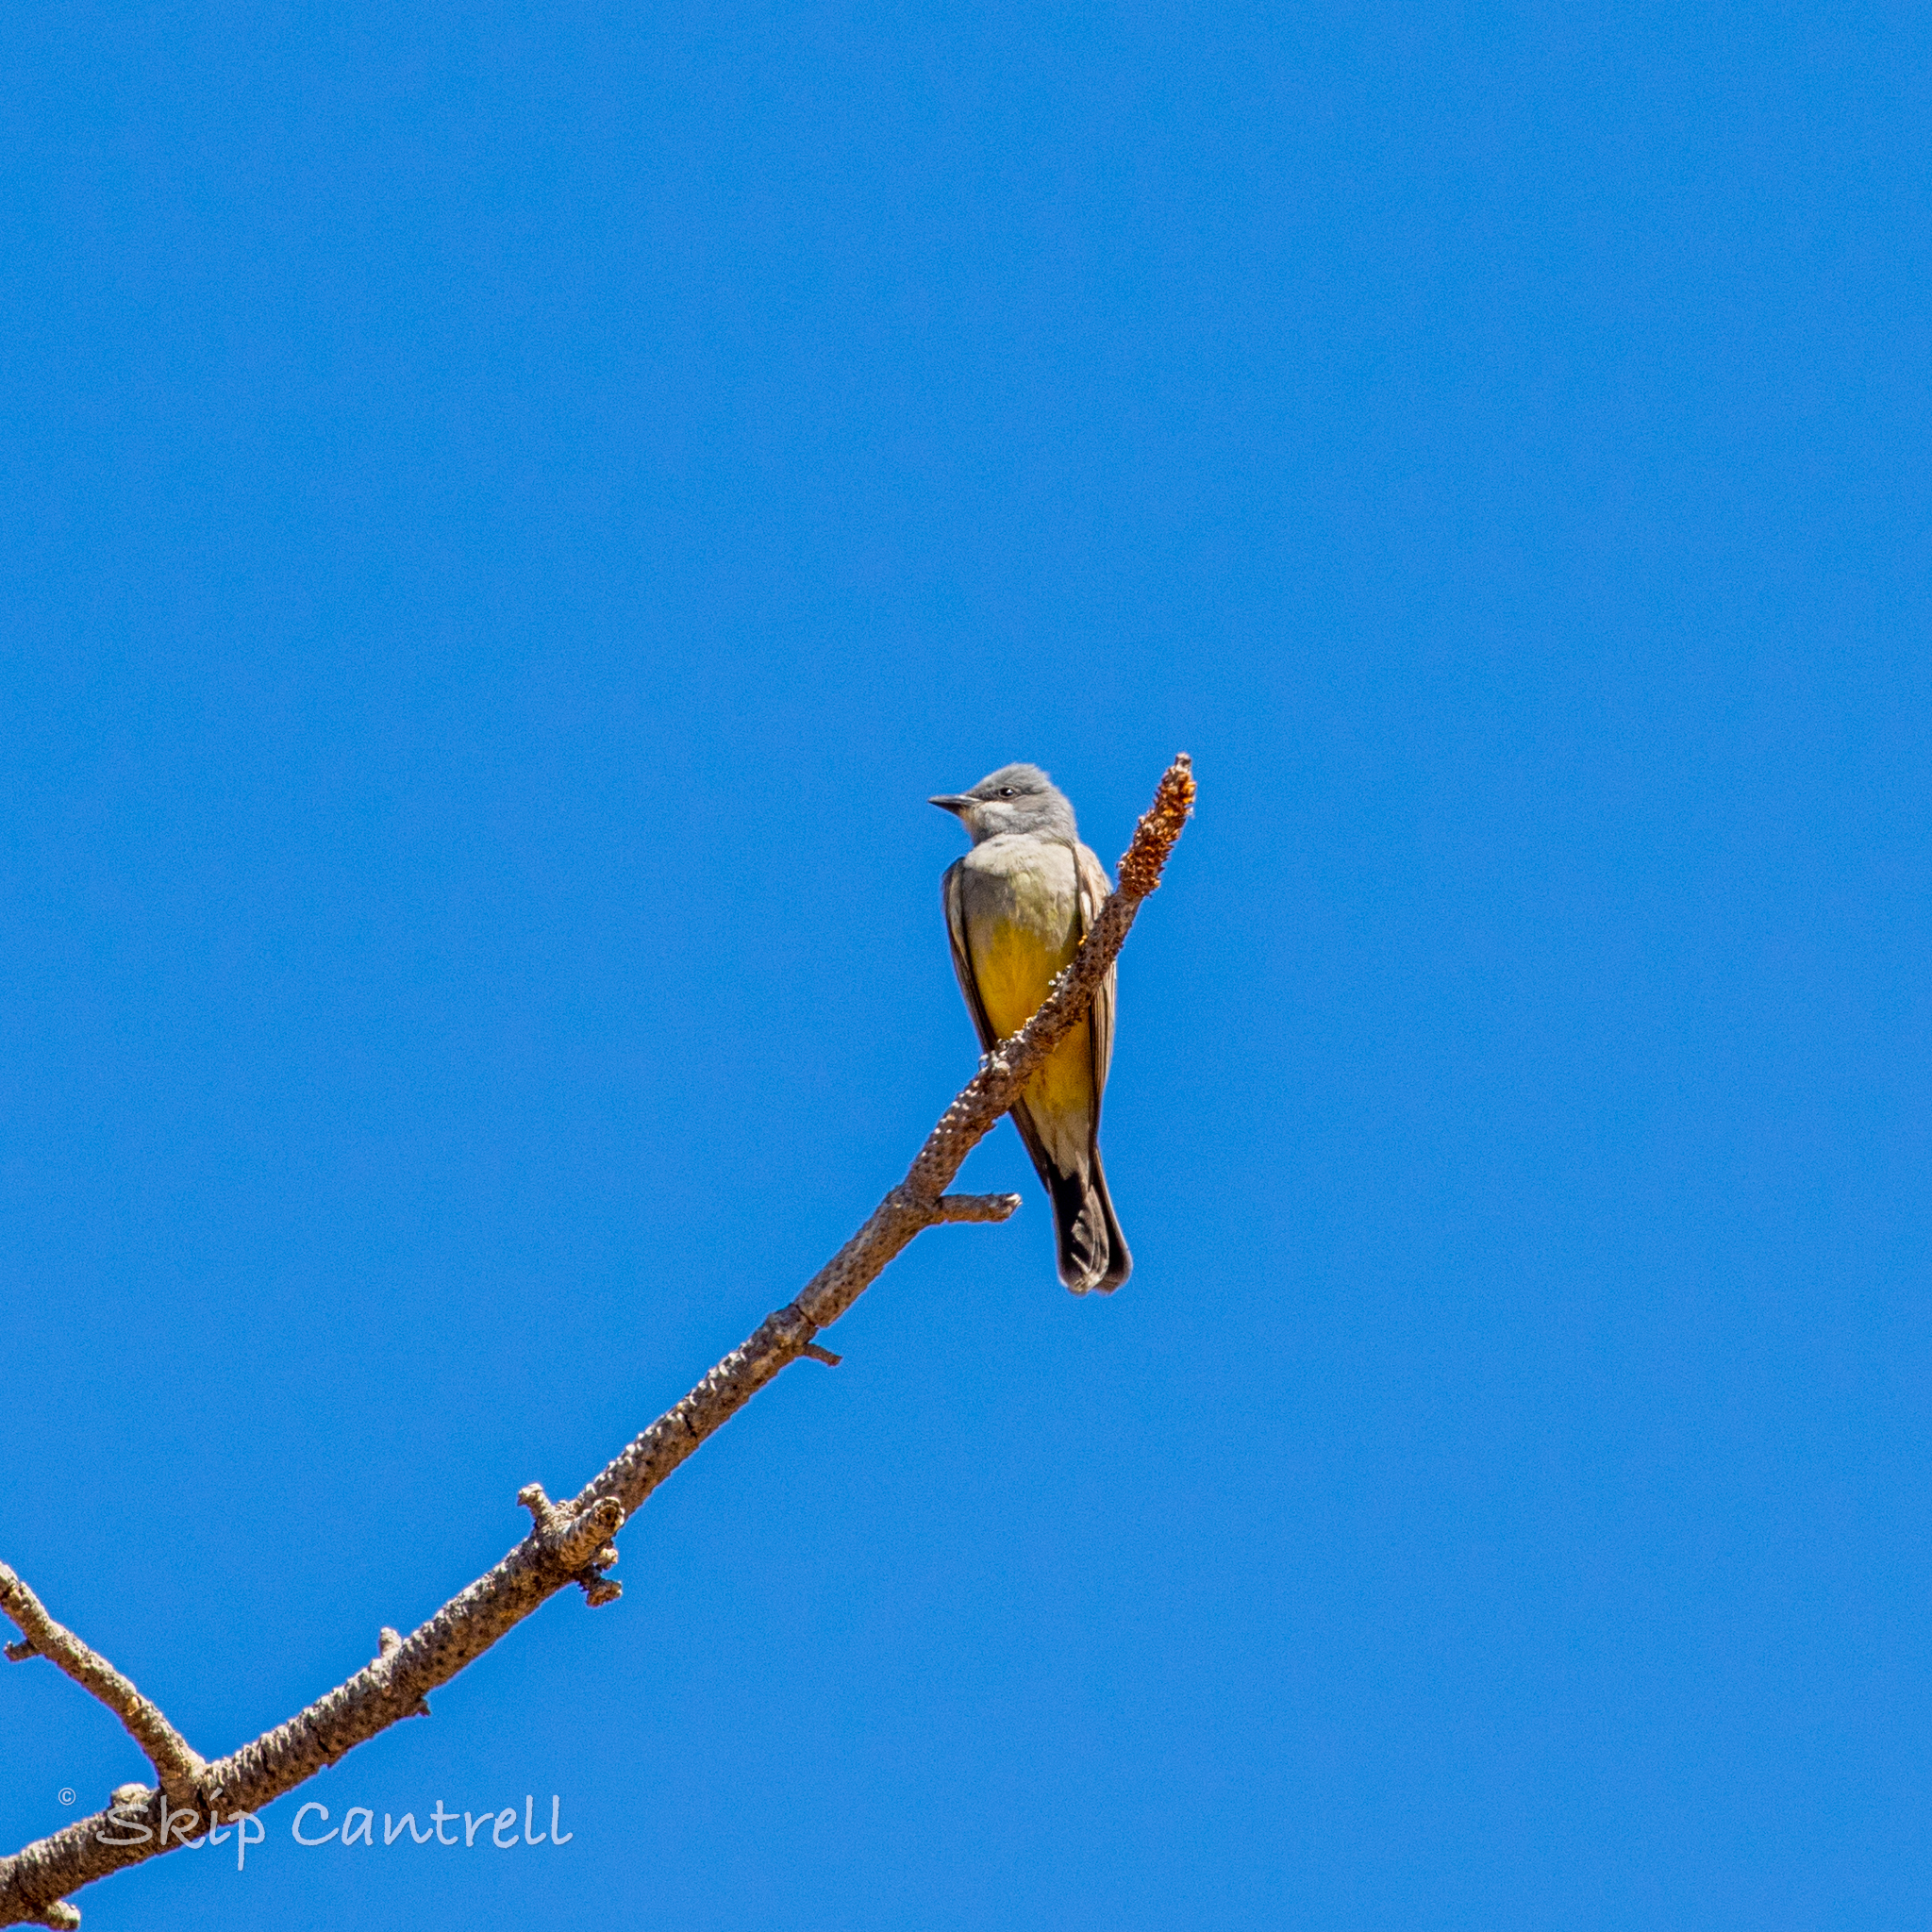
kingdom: Animalia
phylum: Chordata
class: Aves
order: Passeriformes
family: Tyrannidae
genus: Tyrannus
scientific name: Tyrannus vociferans
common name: Cassin's kingbird
